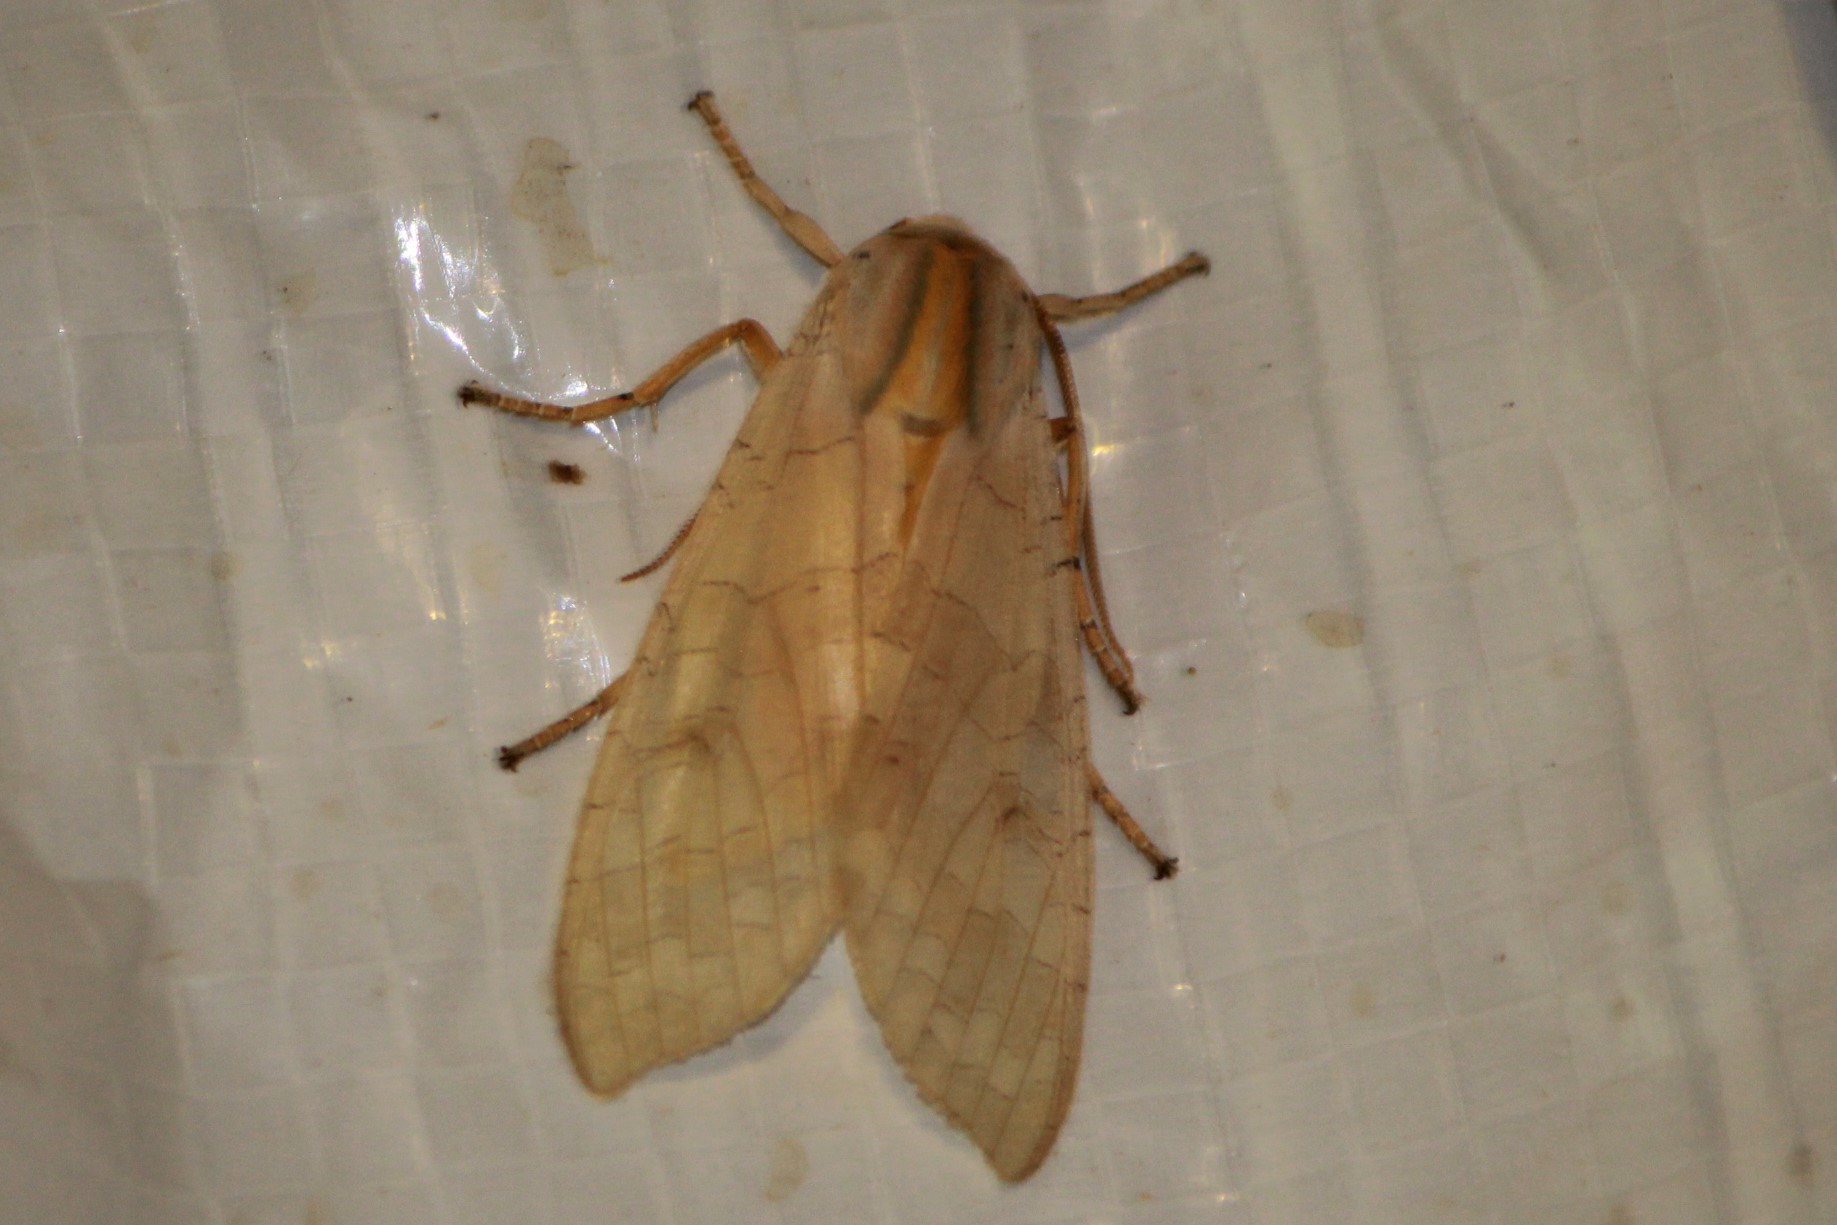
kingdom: Animalia
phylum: Arthropoda
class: Insecta
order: Lepidoptera
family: Erebidae
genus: Halysidota
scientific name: Halysidota tessellaris
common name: Banded tussock moth
